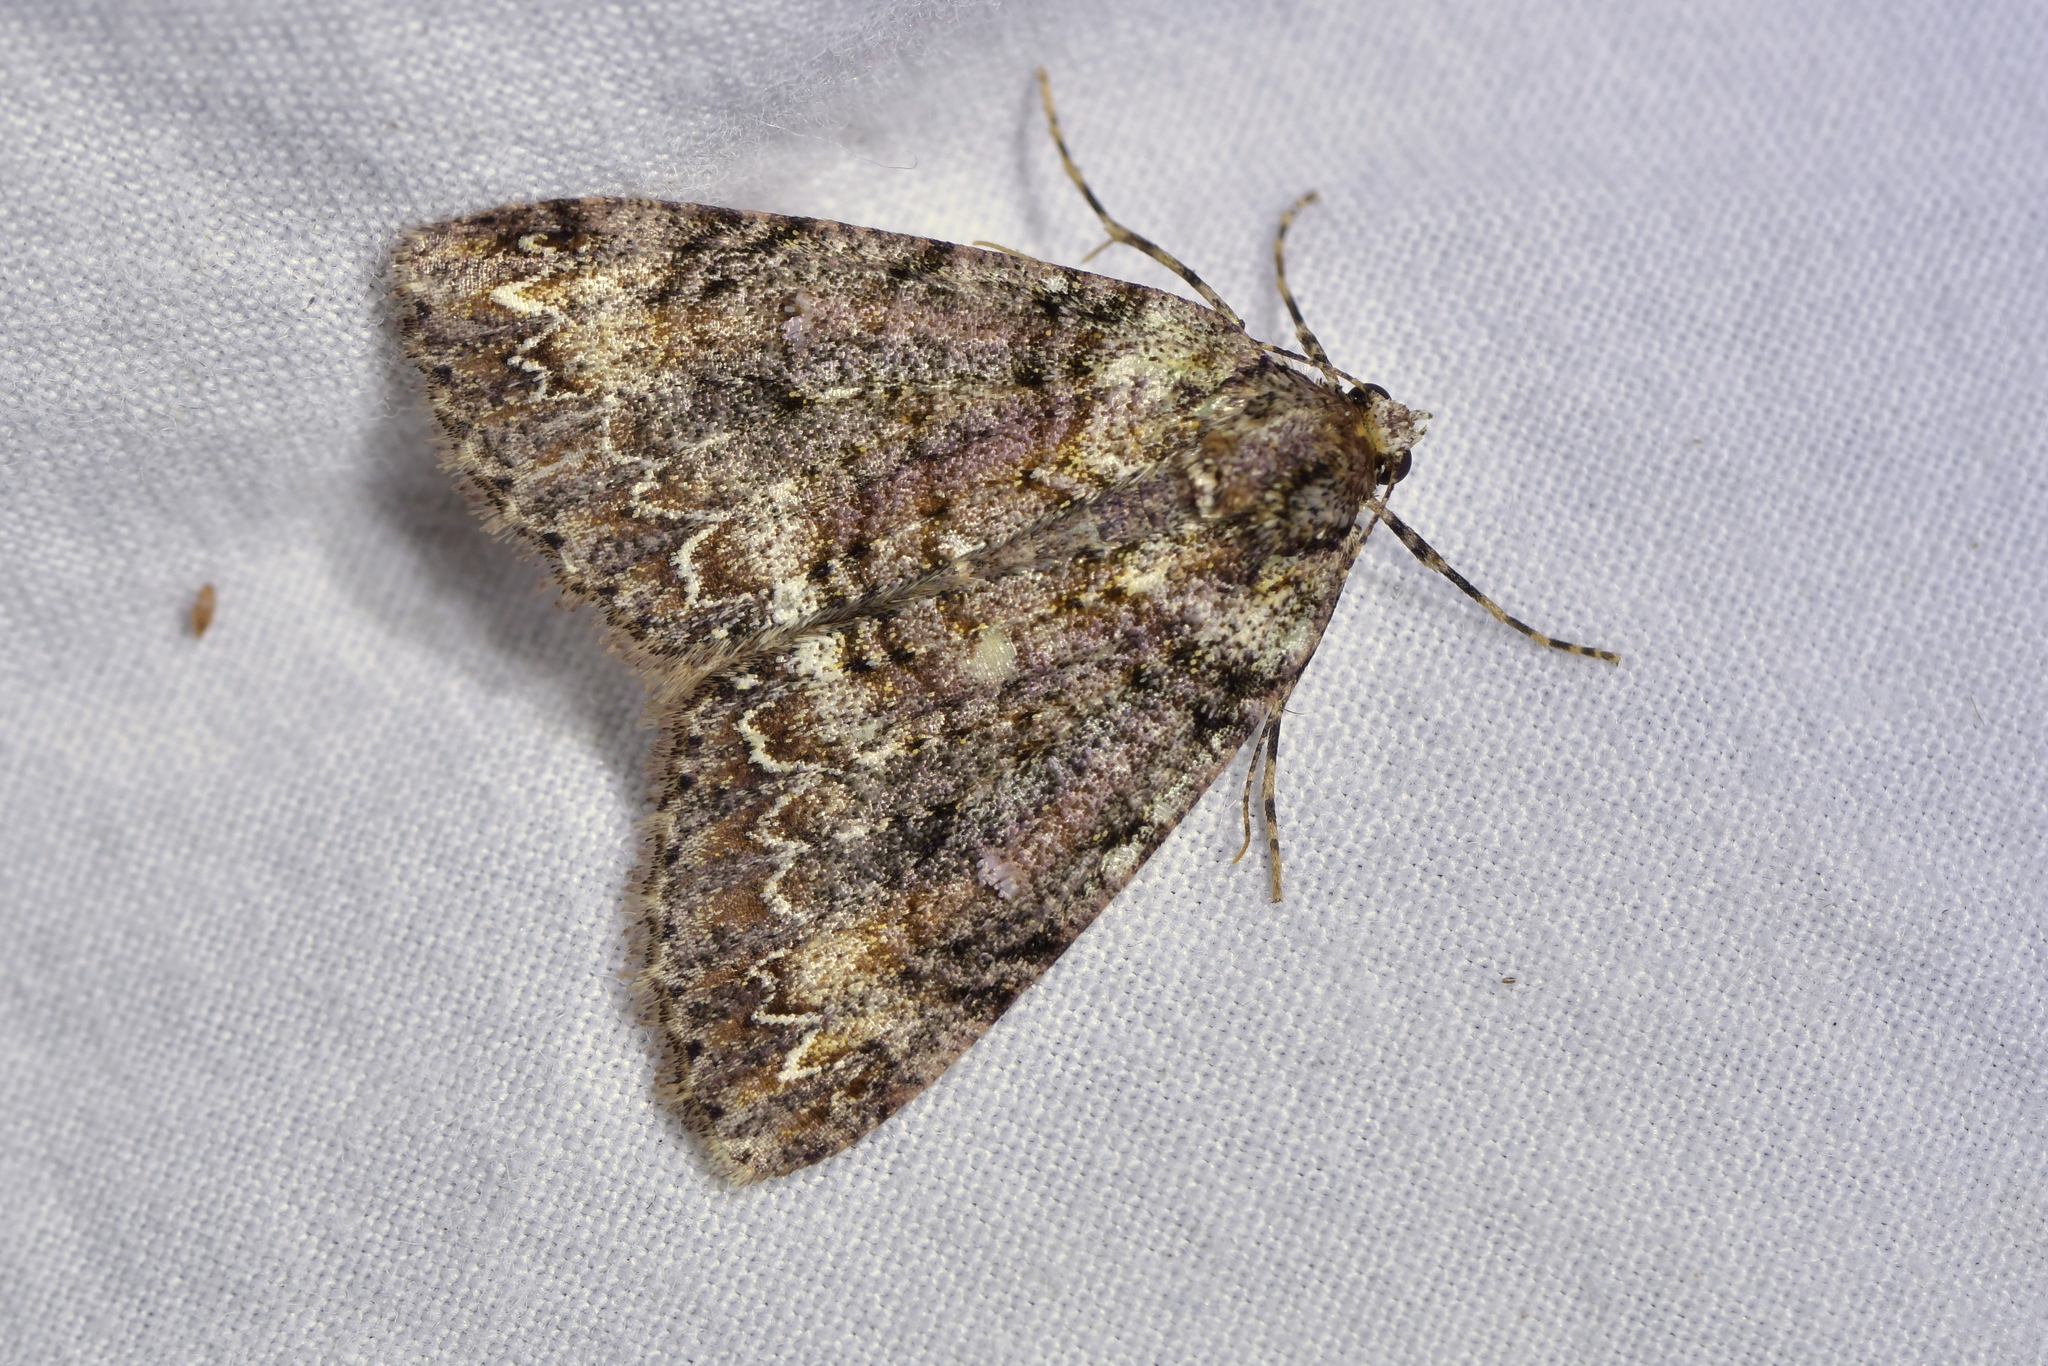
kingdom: Animalia
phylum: Arthropoda
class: Insecta
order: Lepidoptera
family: Geometridae
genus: Pseudocoremia
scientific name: Pseudocoremia suavis
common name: Common forest looper
